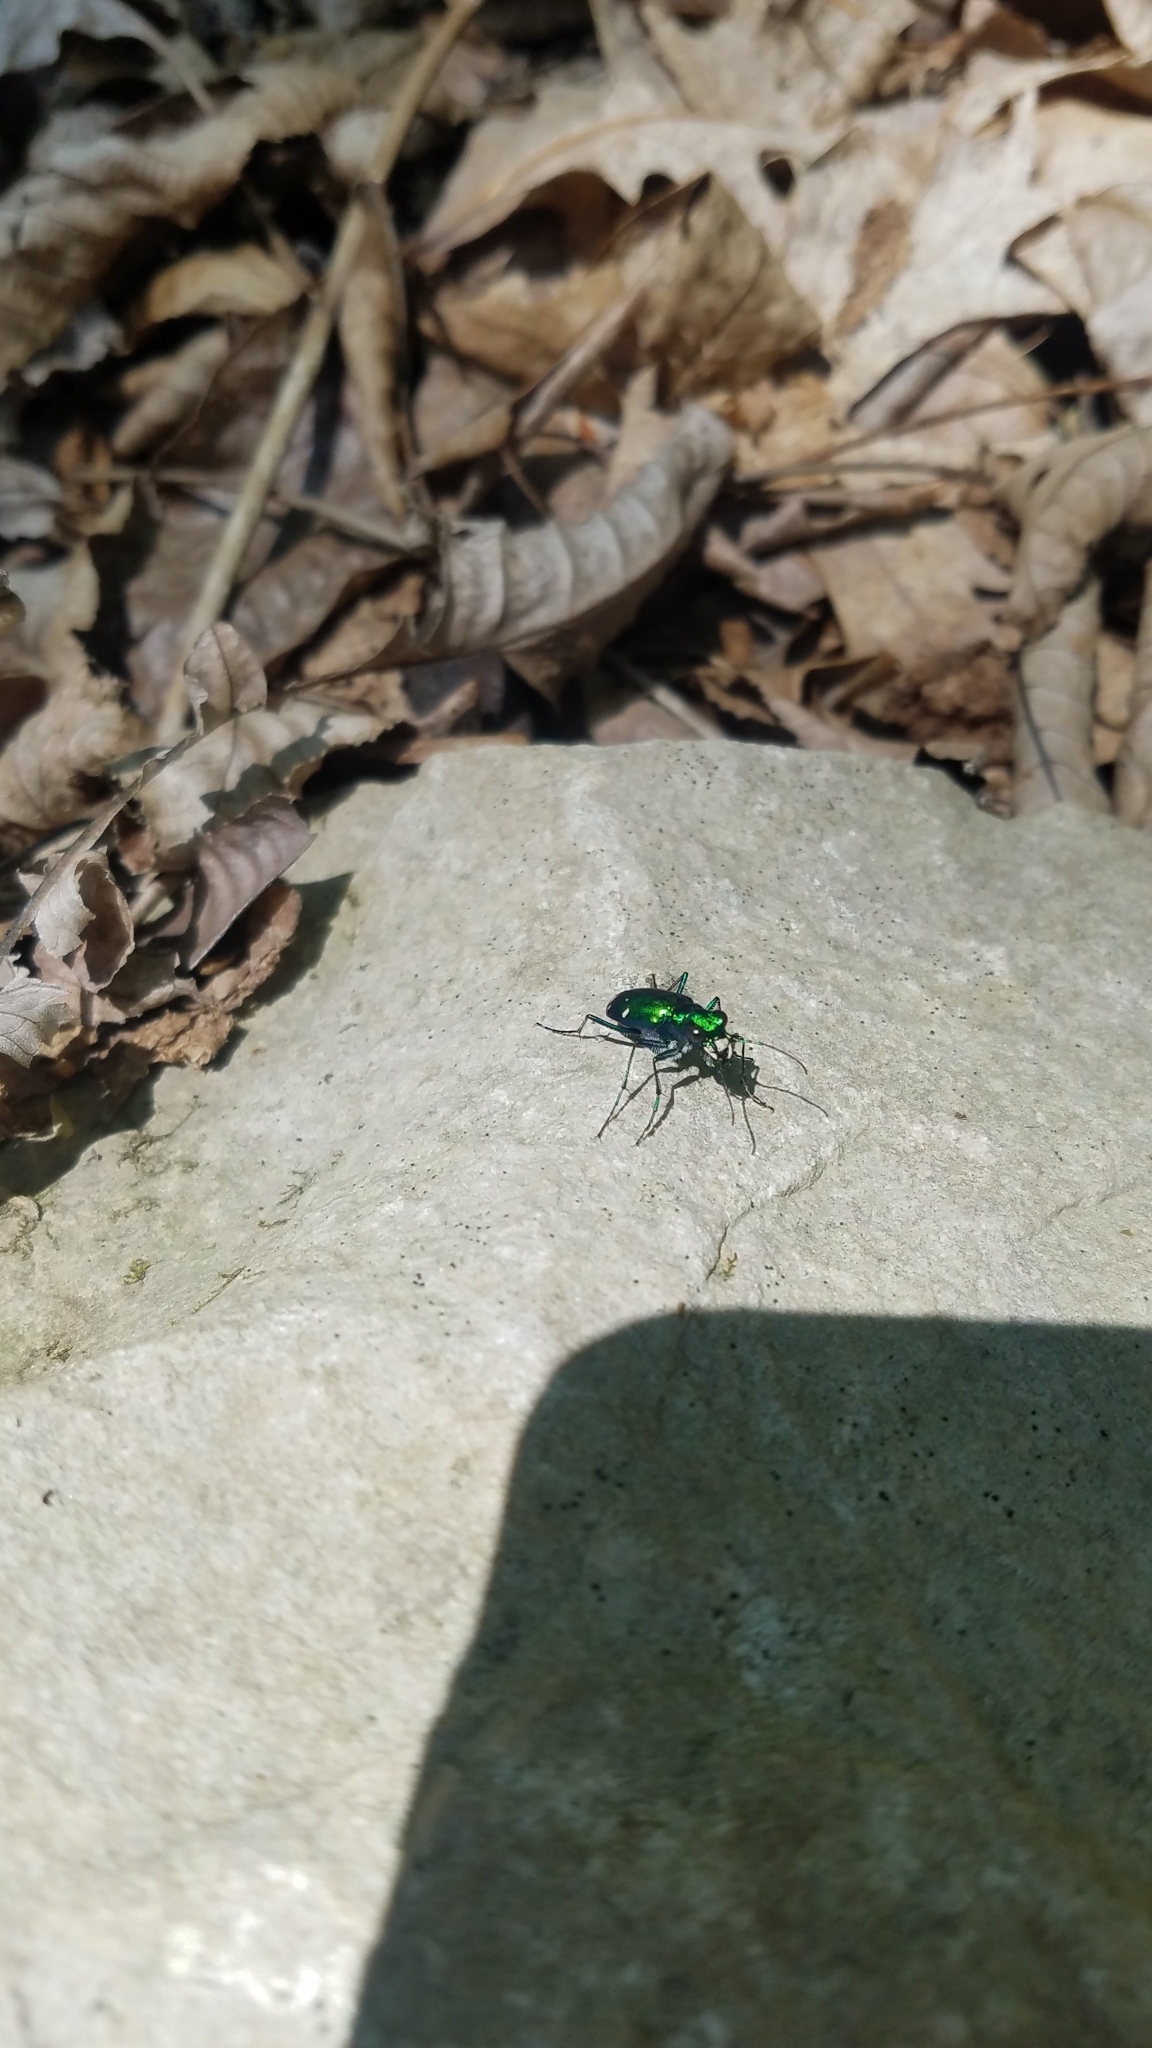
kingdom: Animalia
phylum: Arthropoda
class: Insecta
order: Coleoptera
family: Carabidae
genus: Cicindela
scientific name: Cicindela sexguttata
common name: Six-spotted tiger beetle
